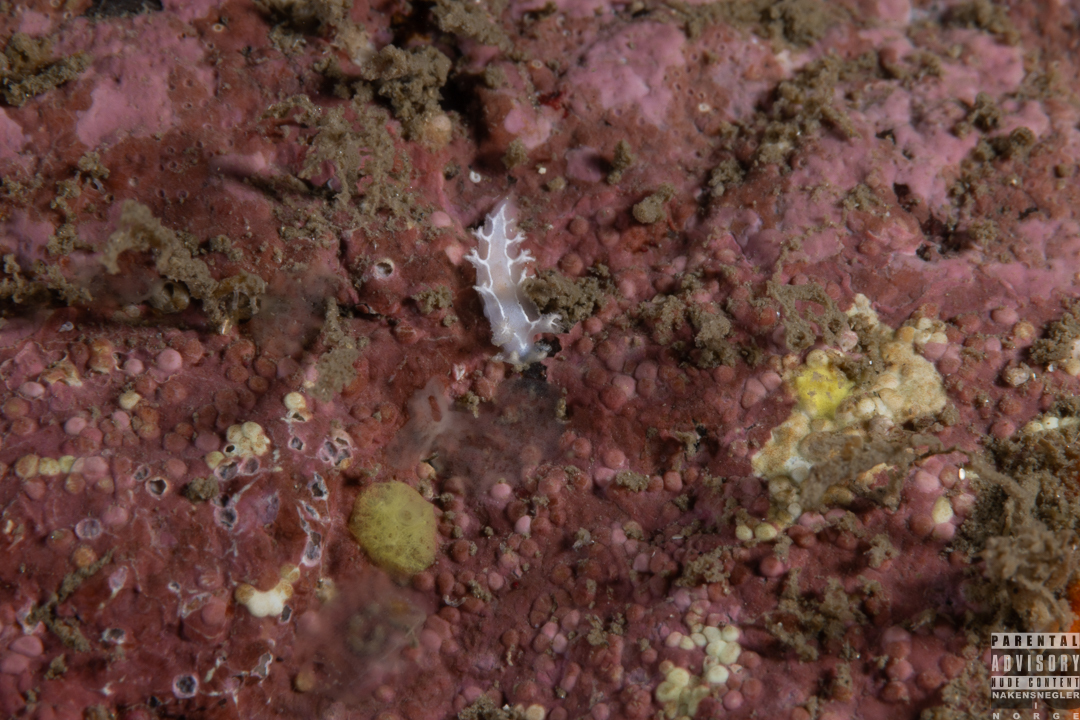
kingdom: Animalia
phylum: Mollusca
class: Gastropoda
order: Nudibranchia
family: Tritoniidae
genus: Duvaucelia
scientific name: Duvaucelia lineata
